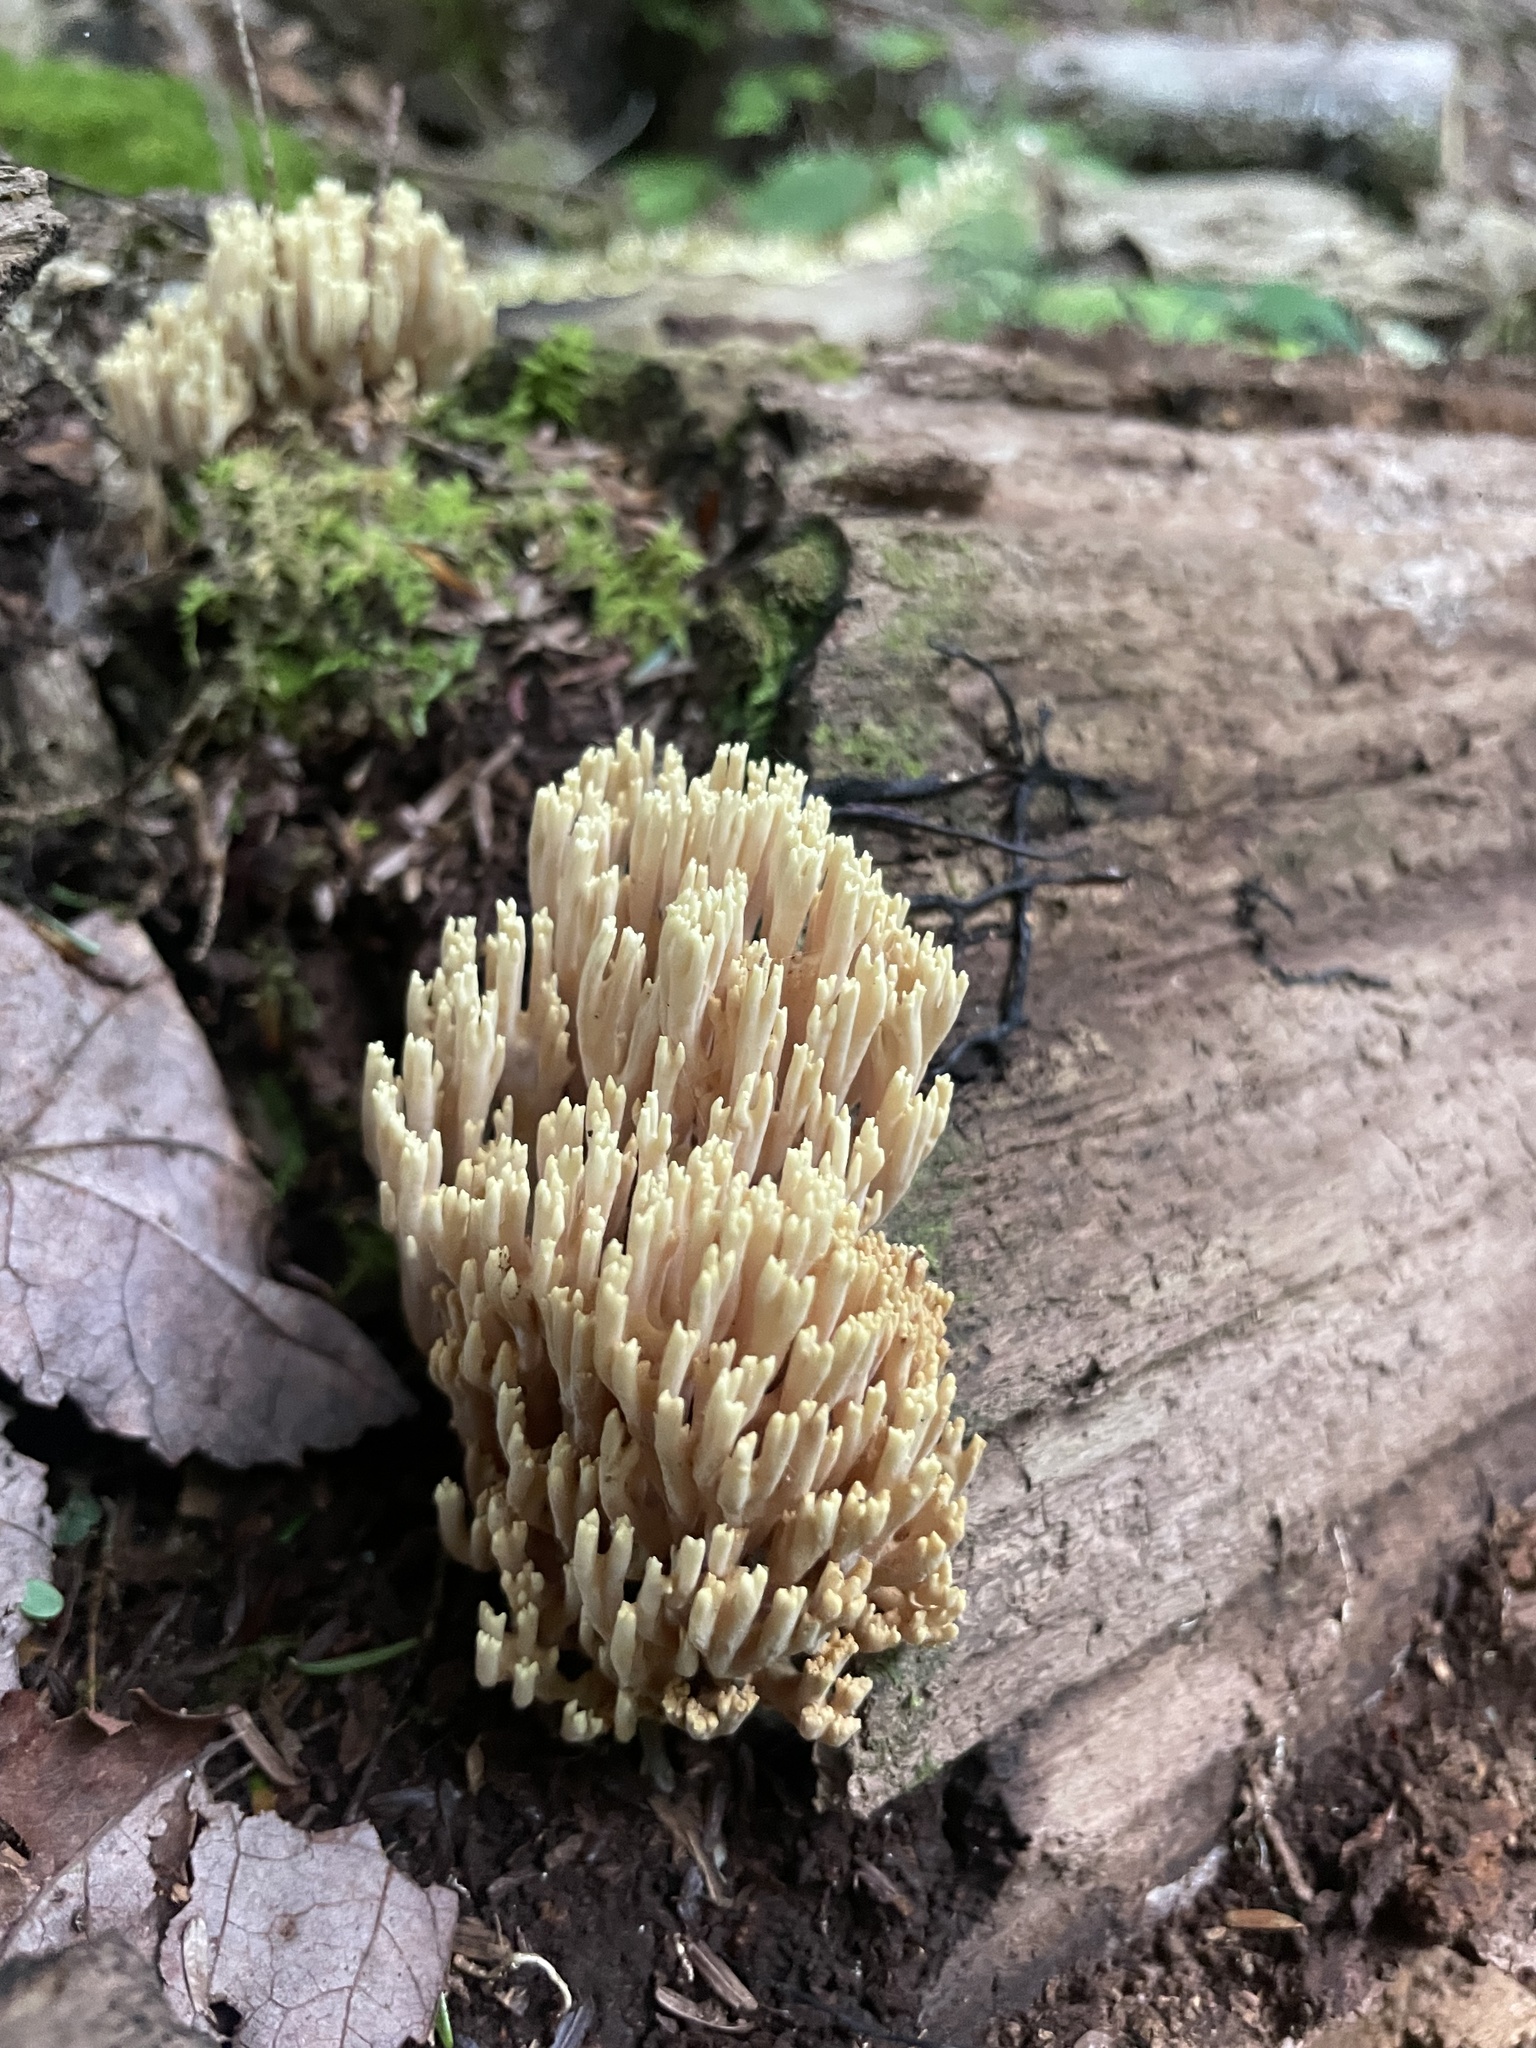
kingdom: Fungi
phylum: Basidiomycota
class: Agaricomycetes
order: Gomphales
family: Gomphaceae
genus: Ramaria
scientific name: Ramaria stricta
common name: Upright coral
